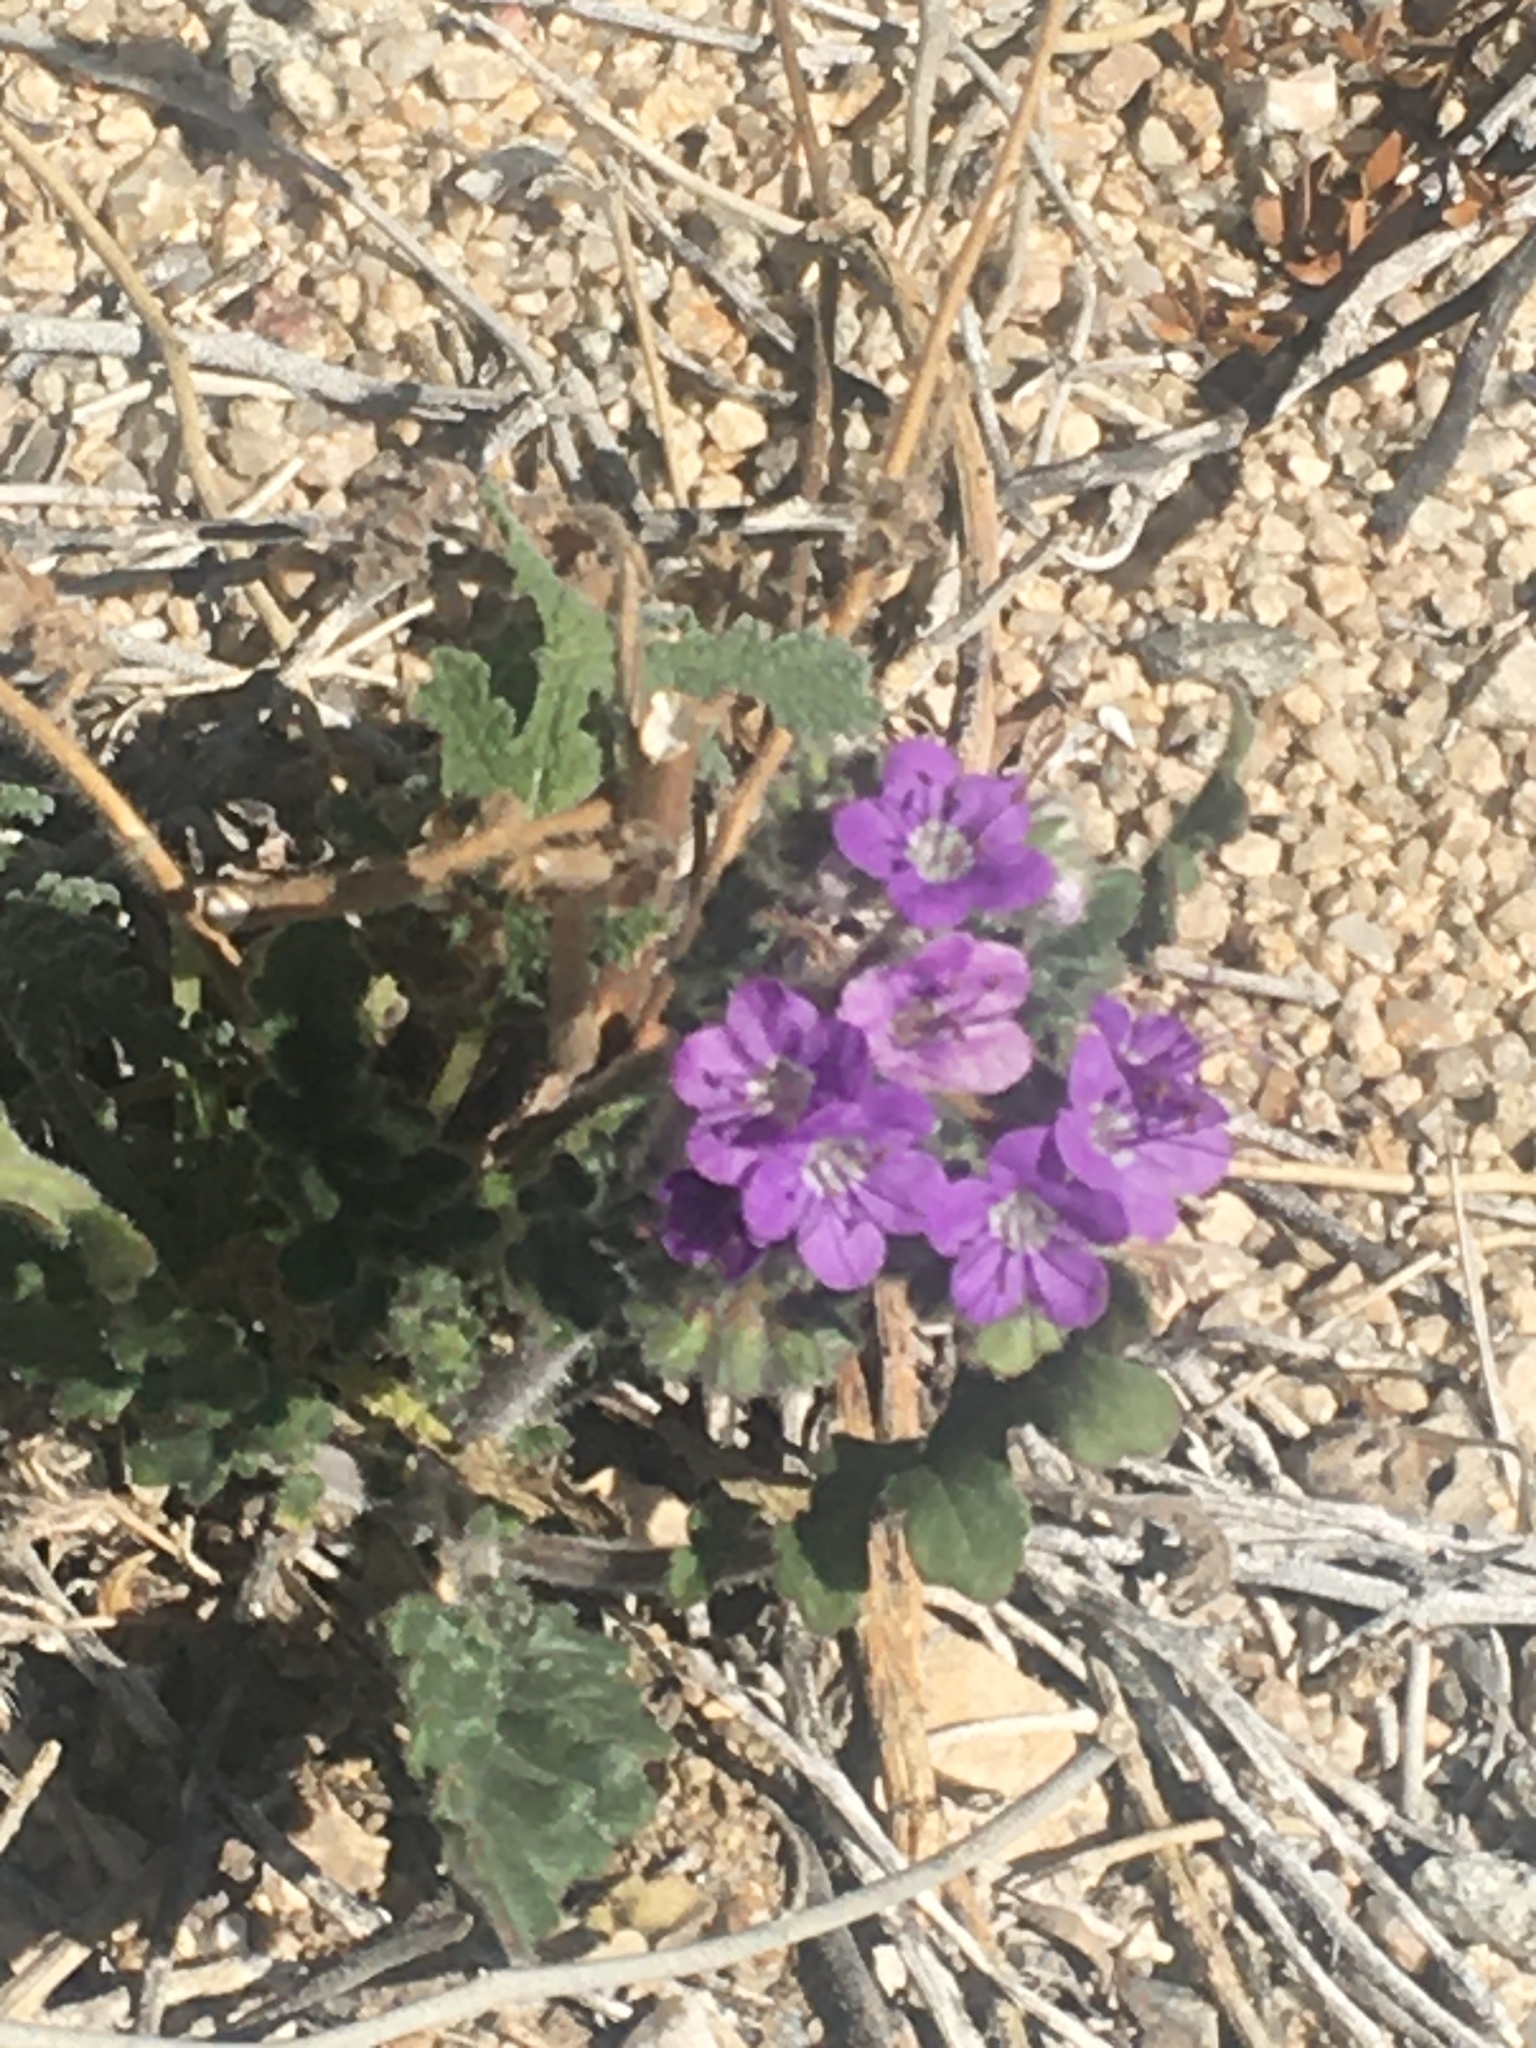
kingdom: Plantae
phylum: Tracheophyta
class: Magnoliopsida
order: Boraginales
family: Hydrophyllaceae
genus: Phacelia
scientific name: Phacelia crenulata
